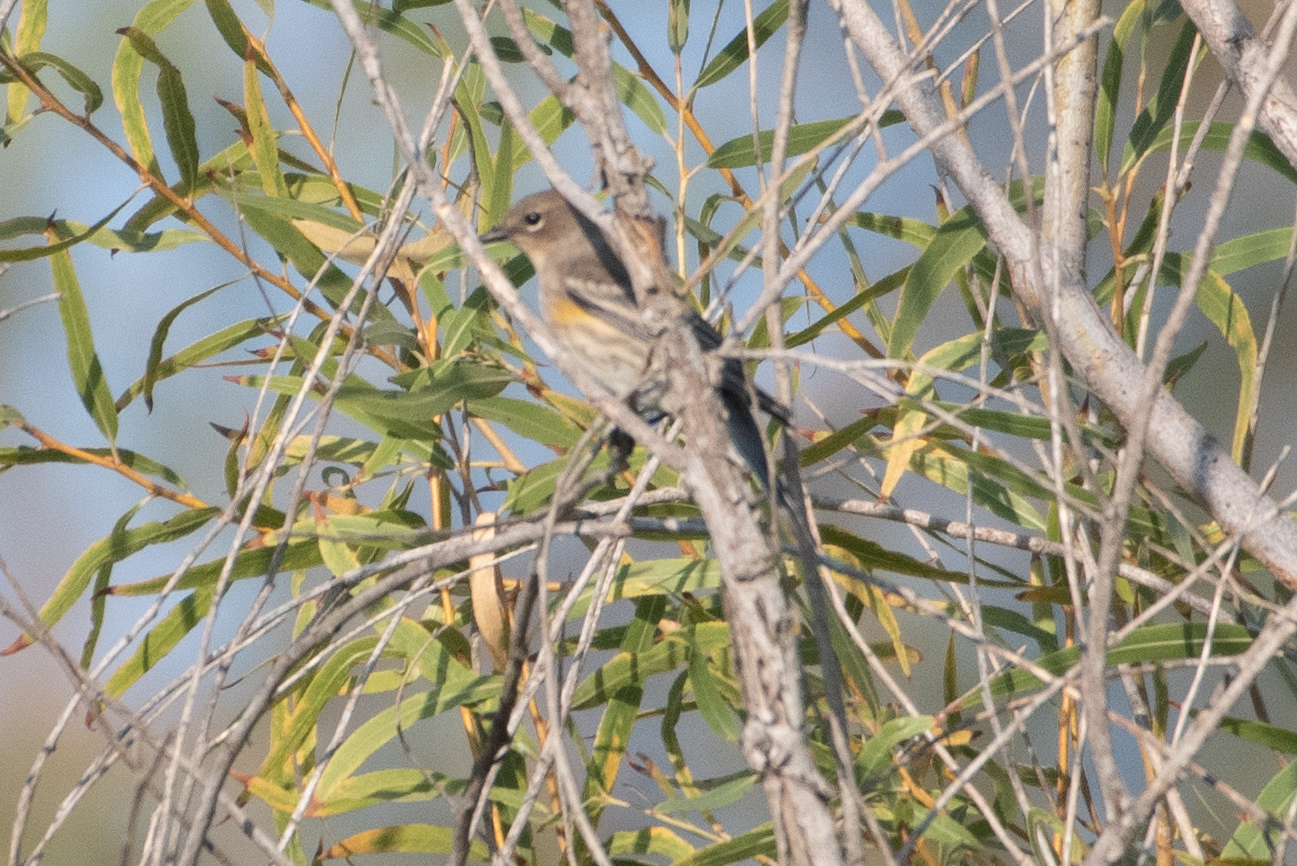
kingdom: Animalia
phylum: Chordata
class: Aves
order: Passeriformes
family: Parulidae
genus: Setophaga
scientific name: Setophaga coronata
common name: Myrtle warbler
